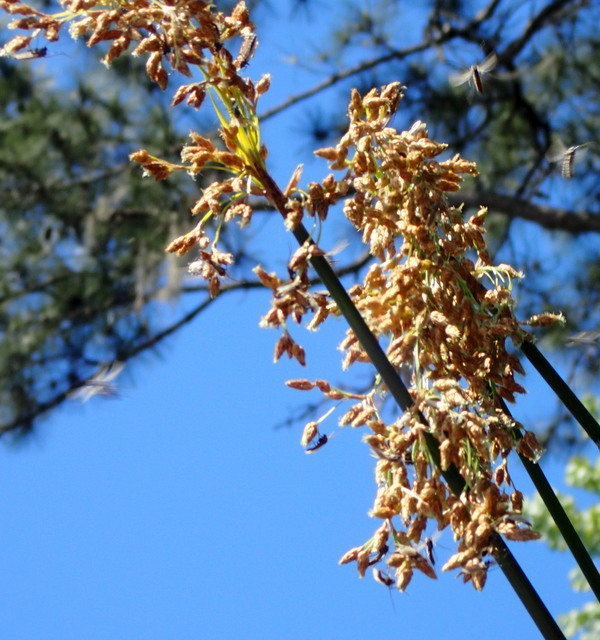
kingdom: Plantae
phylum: Tracheophyta
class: Liliopsida
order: Poales
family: Cyperaceae
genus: Schoenoplectus
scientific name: Schoenoplectus californicus
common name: California bulrush
